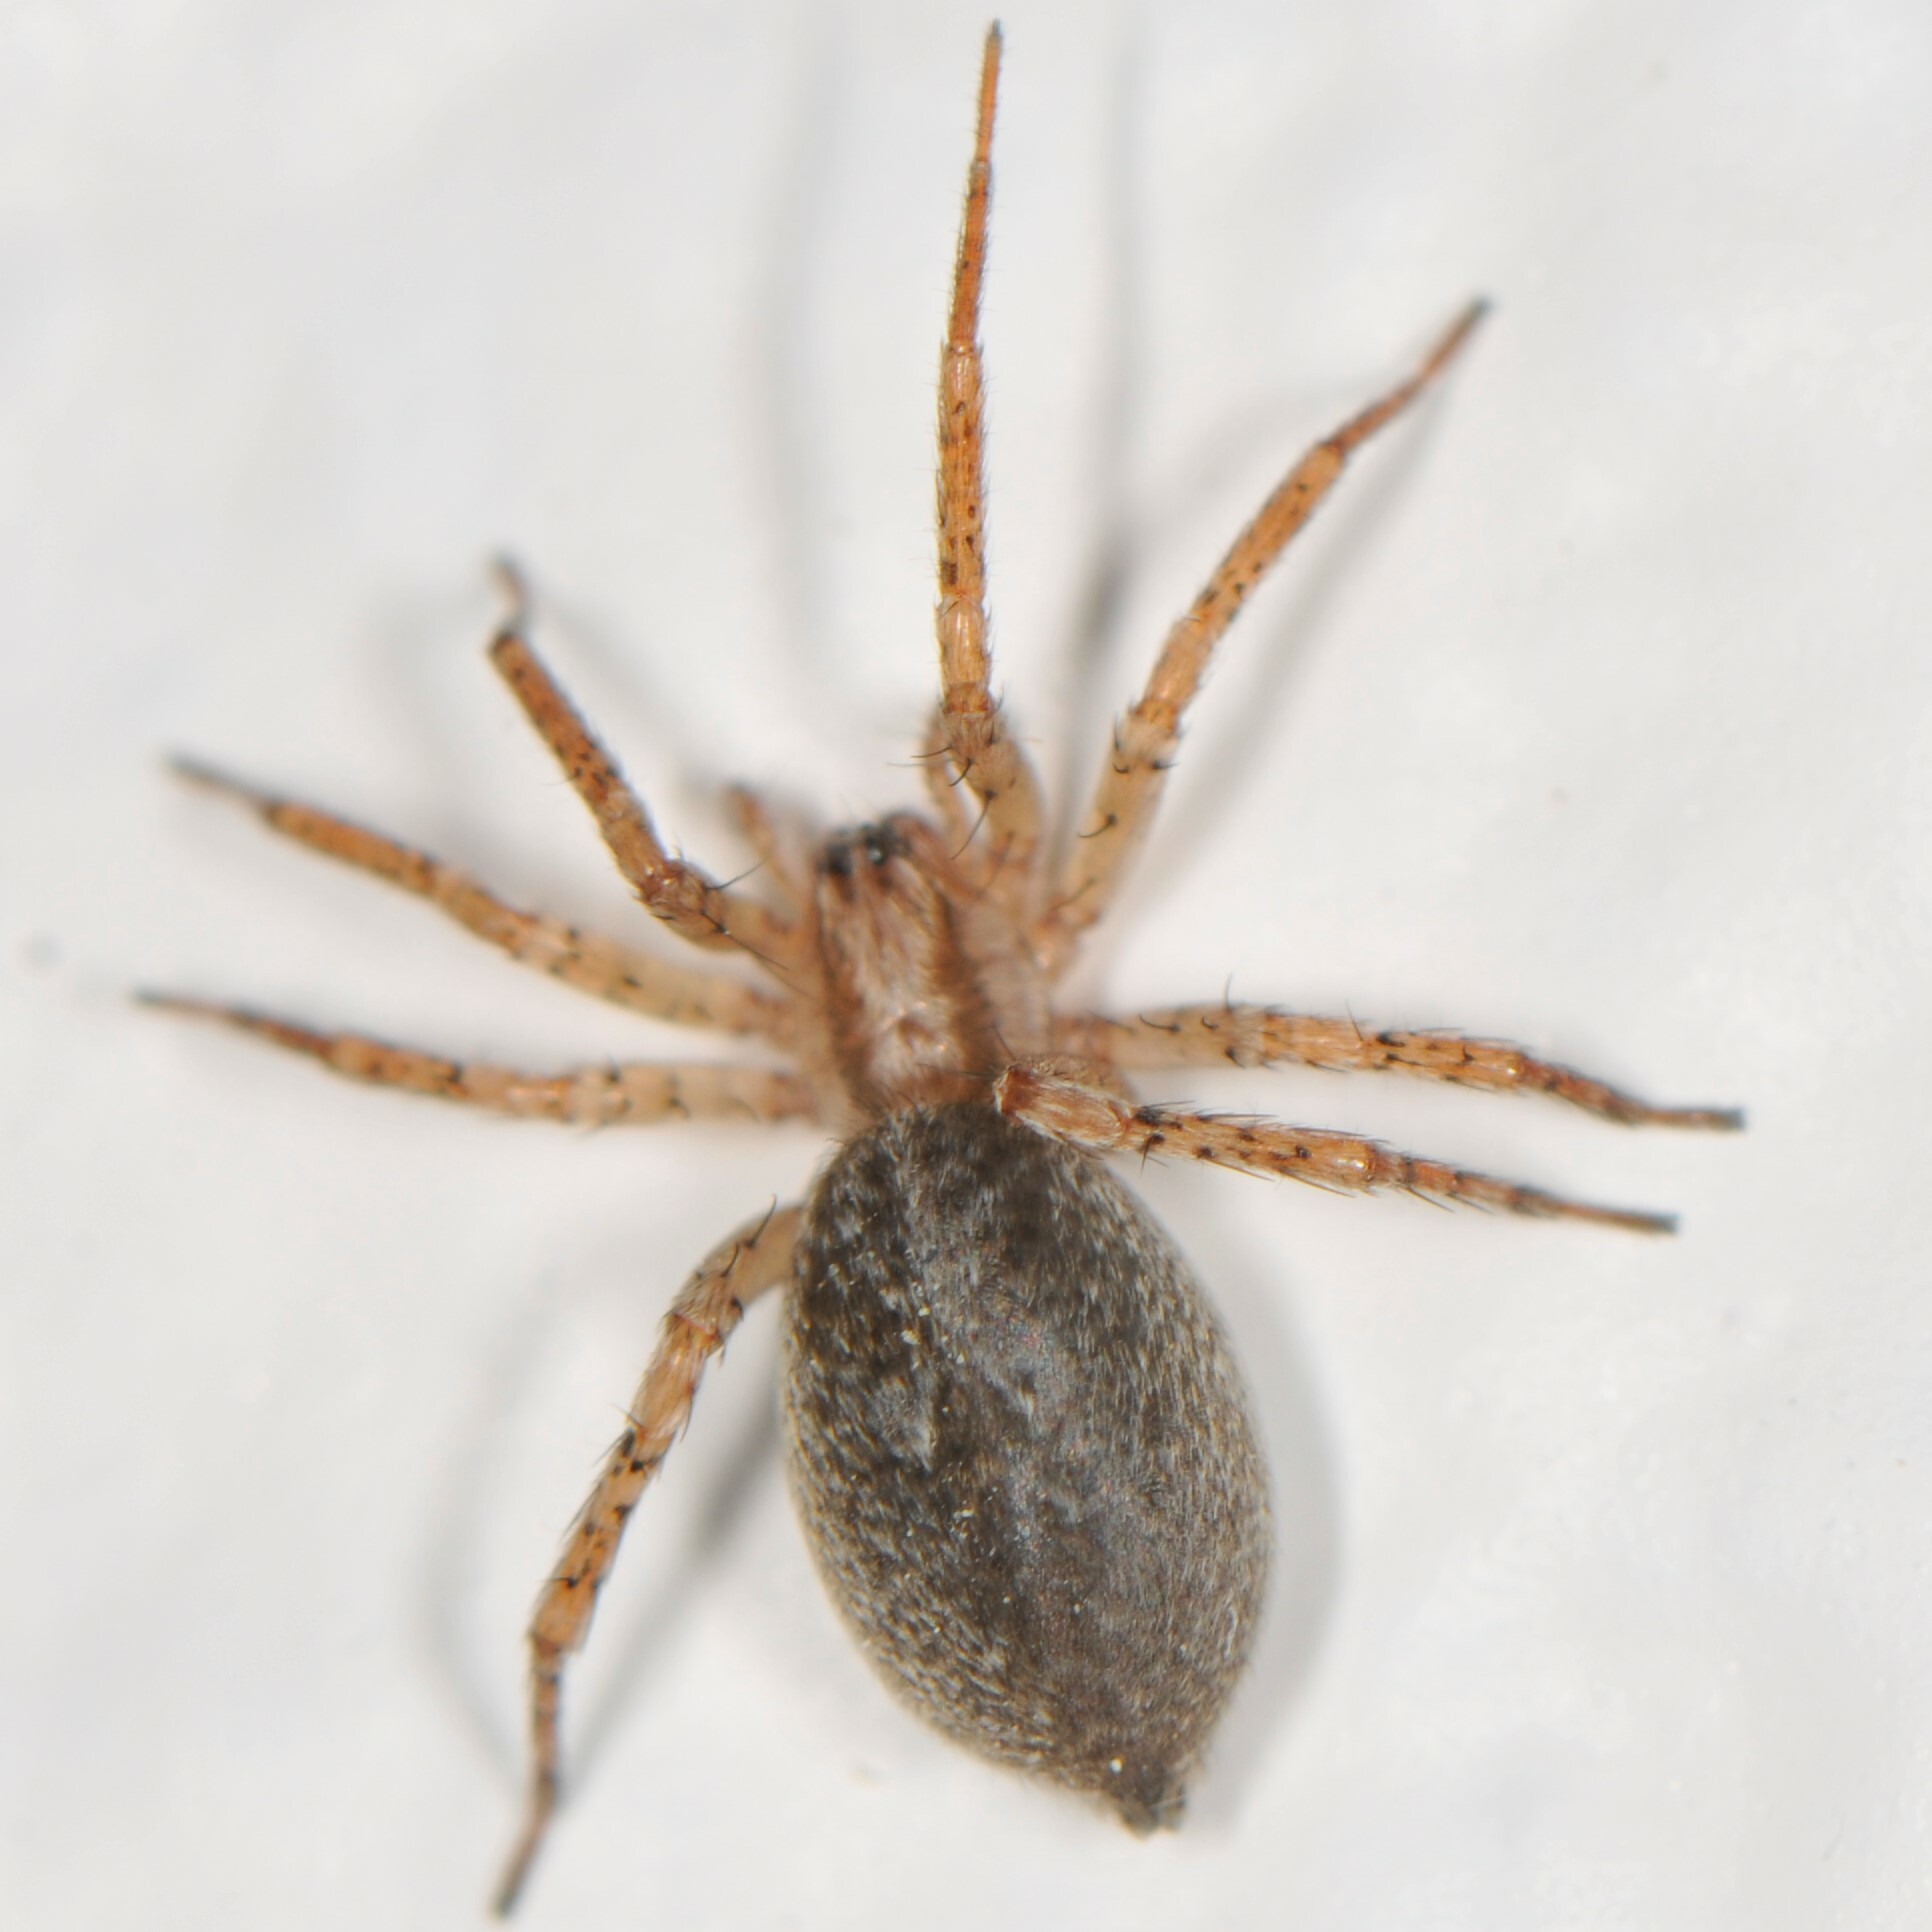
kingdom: Animalia
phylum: Arthropoda
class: Arachnida
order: Araneae
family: Anyphaenidae
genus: Anyphaena
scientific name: Anyphaena
